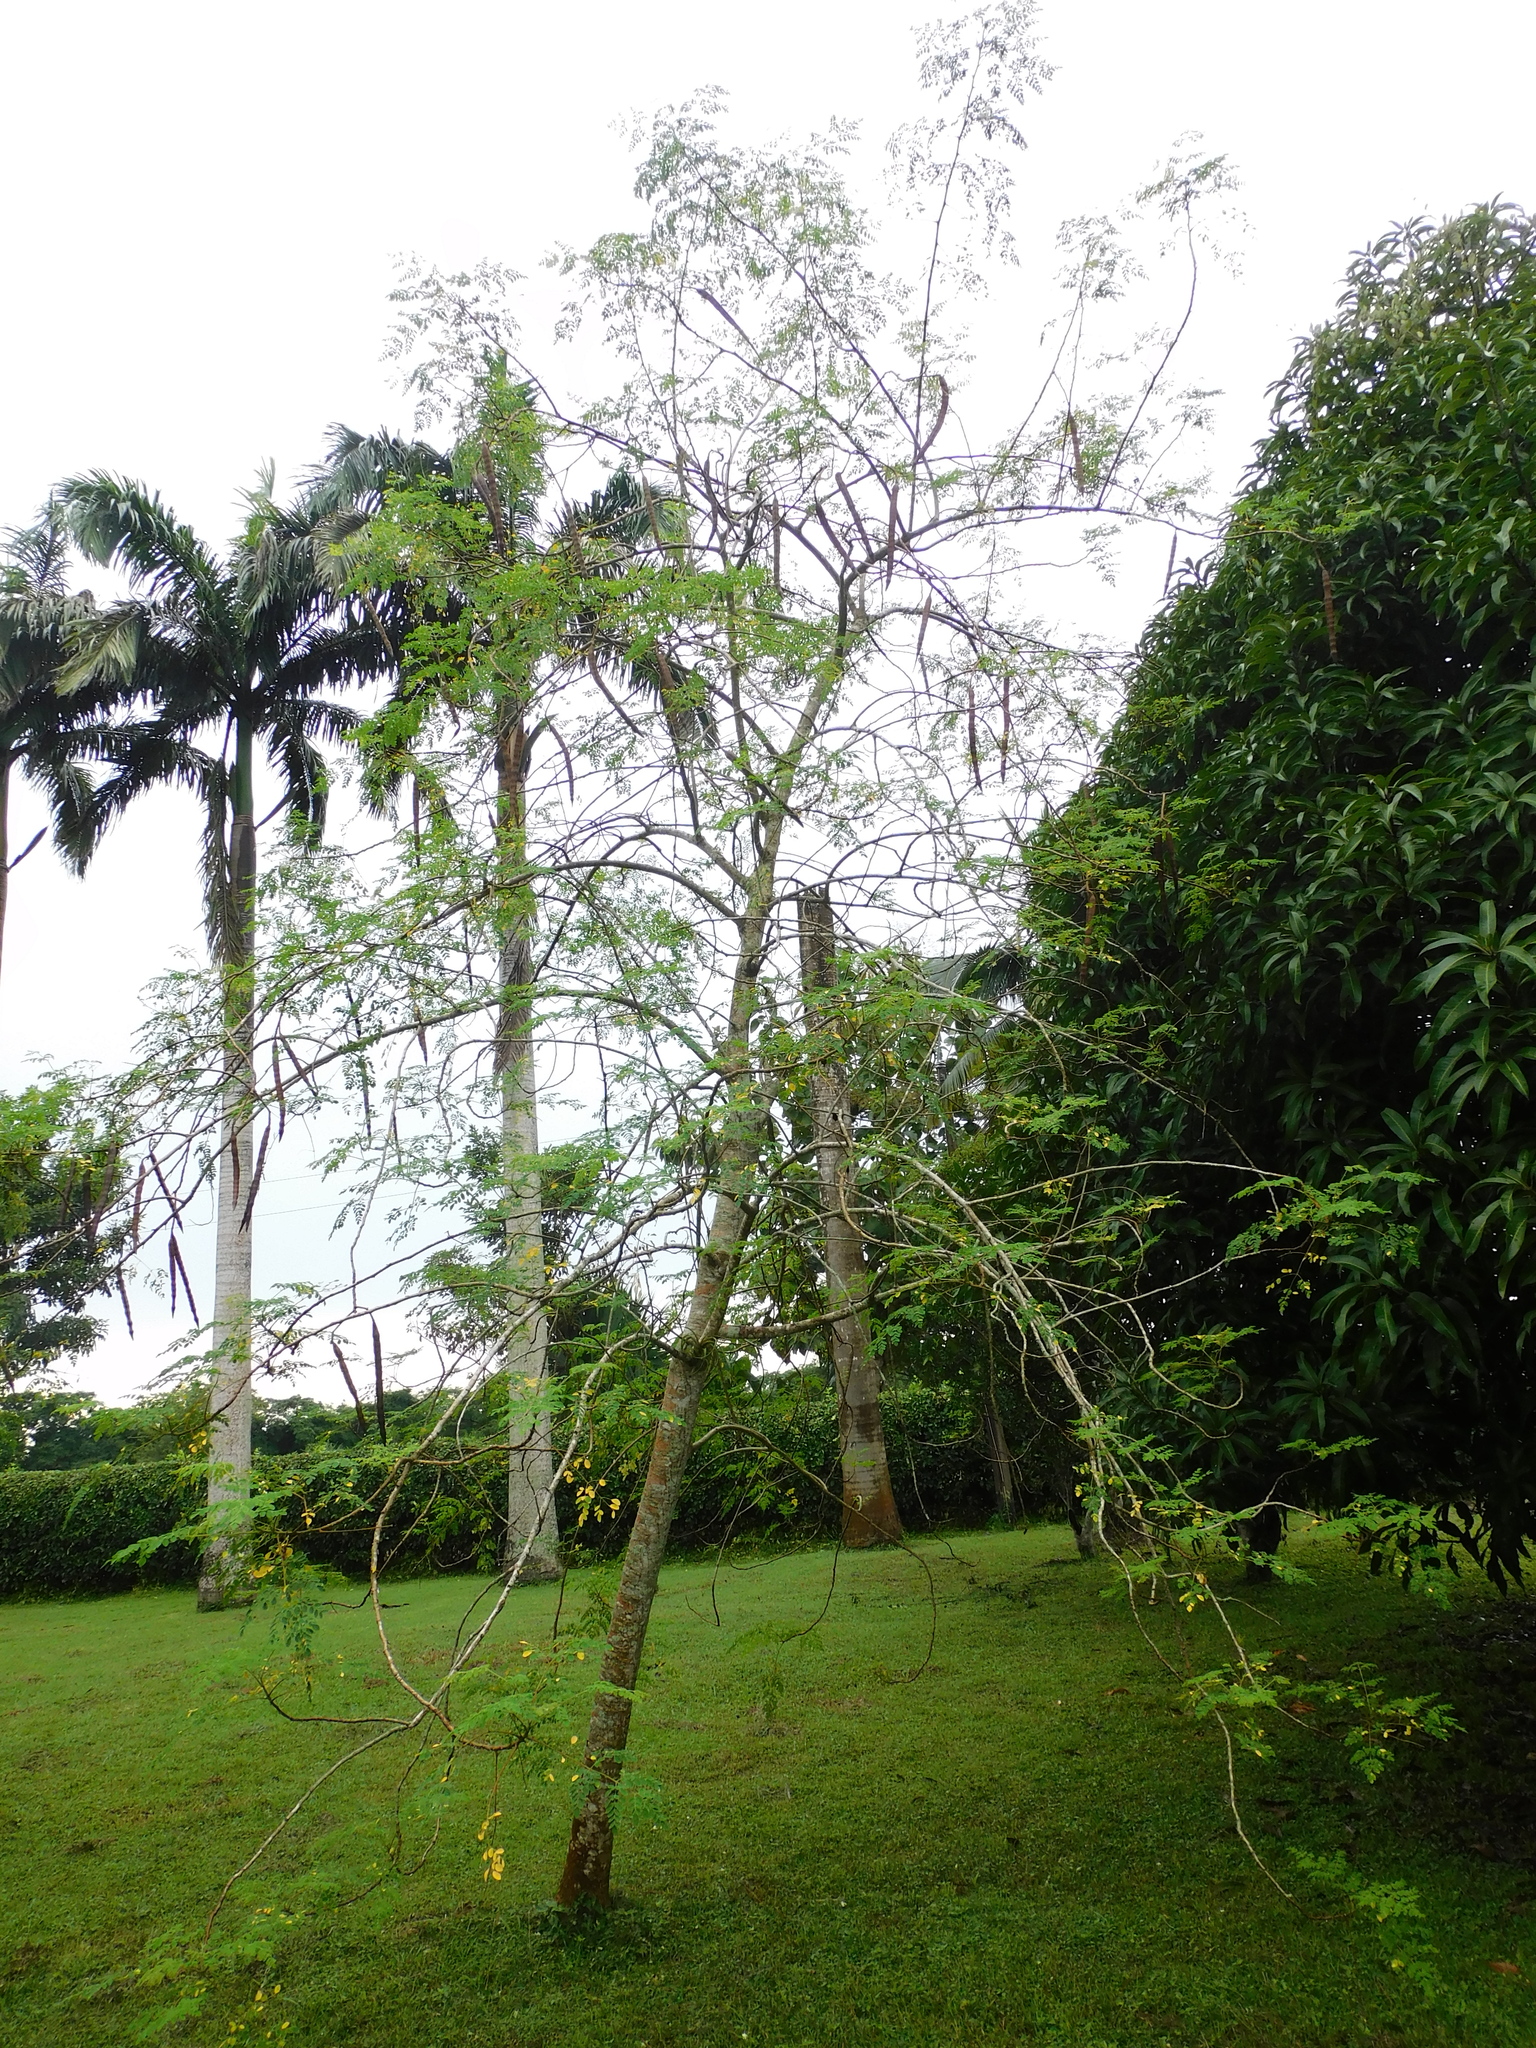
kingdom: Plantae
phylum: Tracheophyta
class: Magnoliopsida
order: Brassicales
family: Moringaceae
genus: Moringa
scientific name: Moringa oleifera
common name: Horseradish-tree
